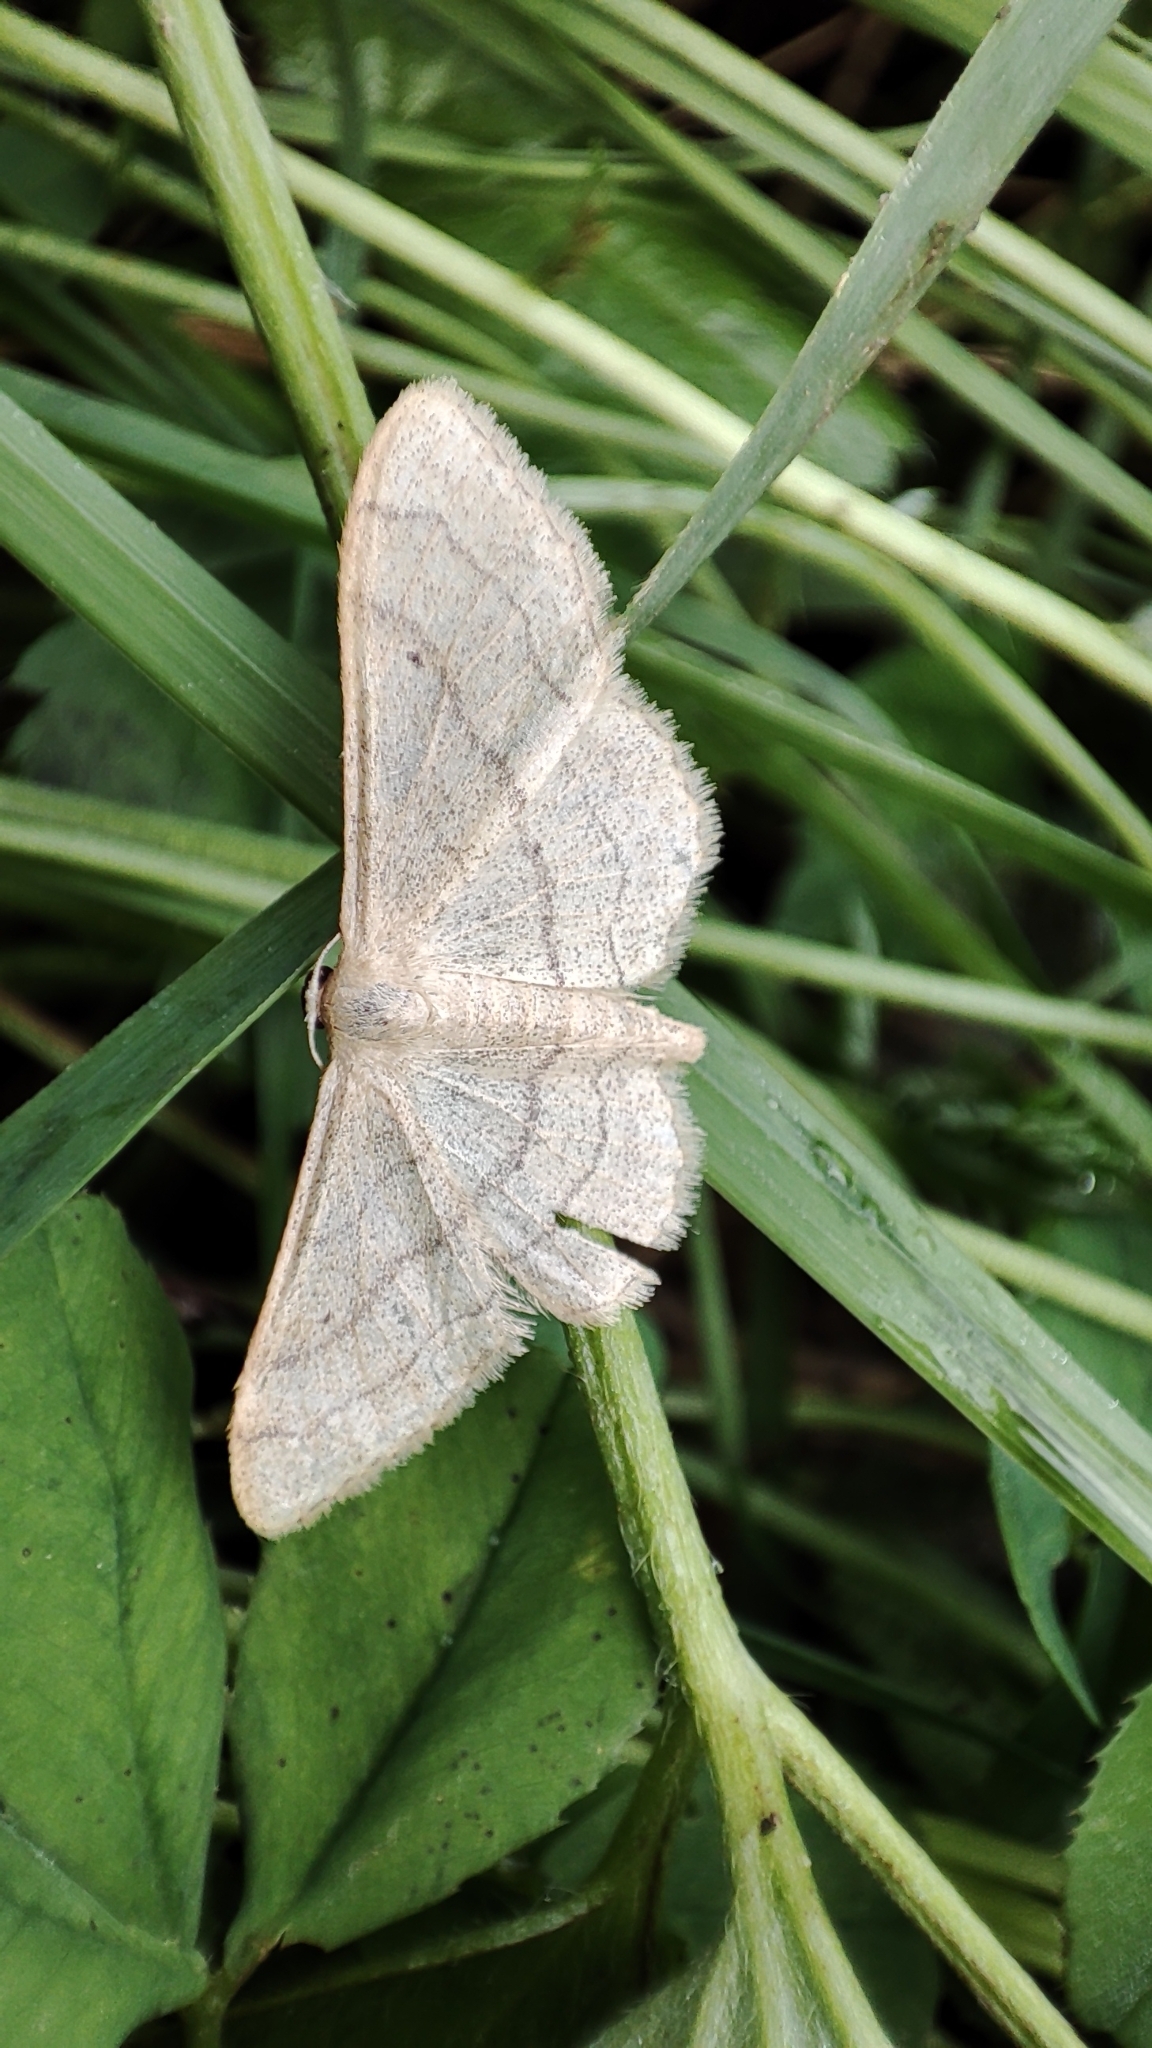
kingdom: Animalia
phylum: Arthropoda
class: Insecta
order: Lepidoptera
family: Geometridae
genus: Idaea
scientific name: Idaea aversata
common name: Riband wave
